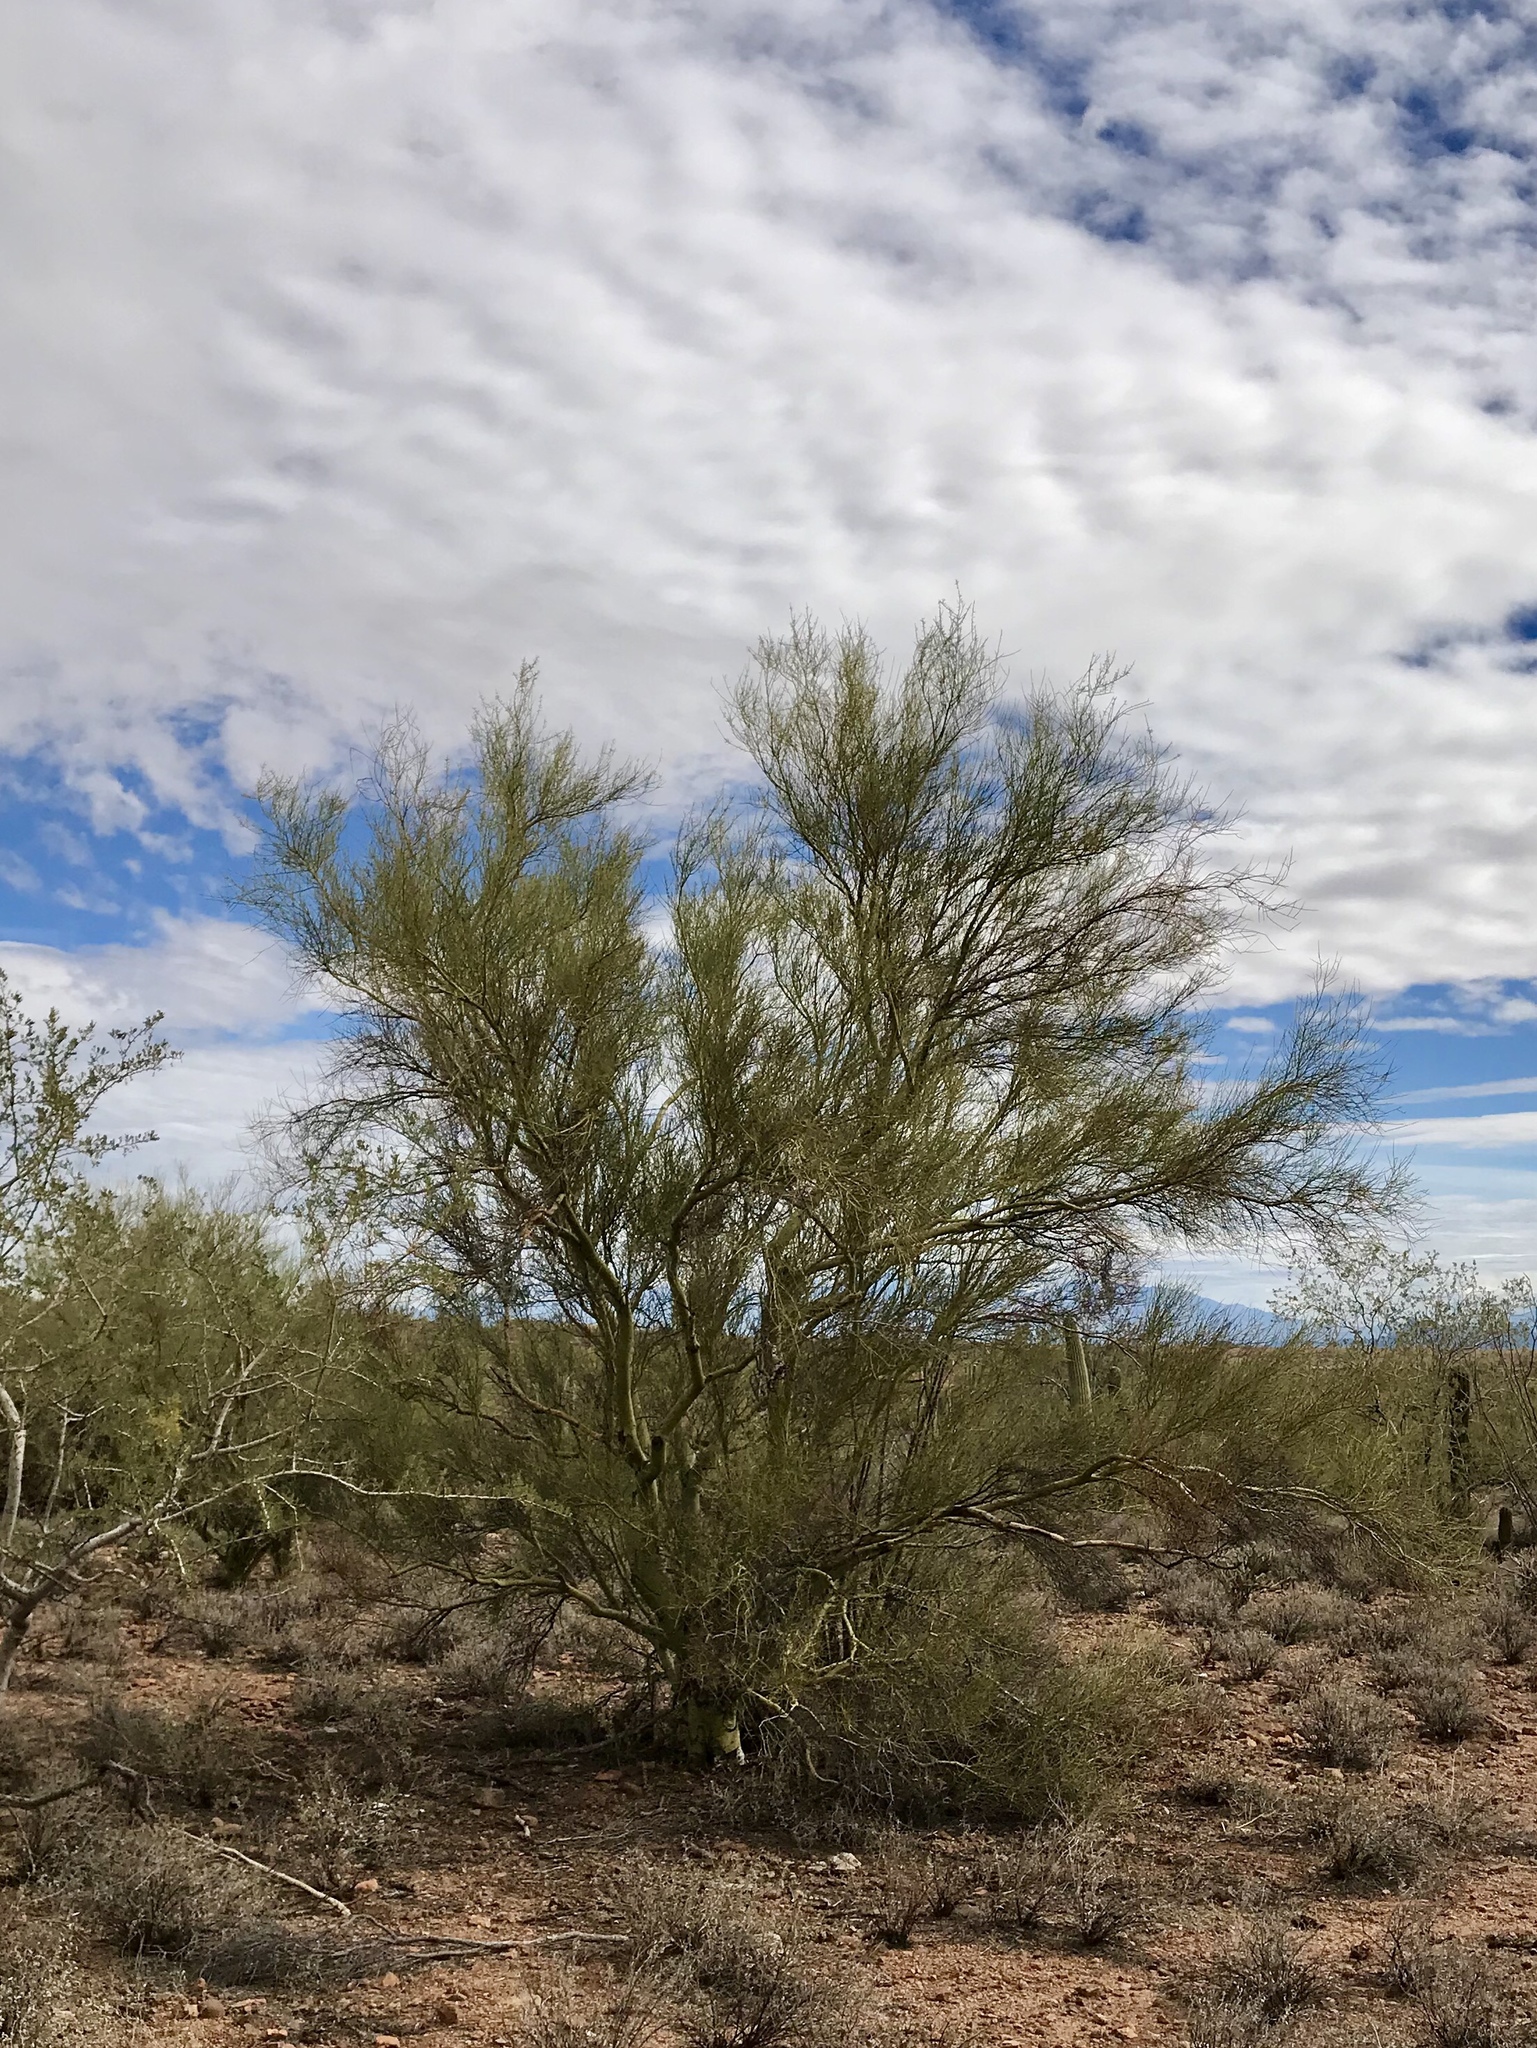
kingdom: Plantae
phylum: Tracheophyta
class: Magnoliopsida
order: Fabales
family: Fabaceae
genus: Parkinsonia
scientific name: Parkinsonia microphylla
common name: Yellow paloverde
